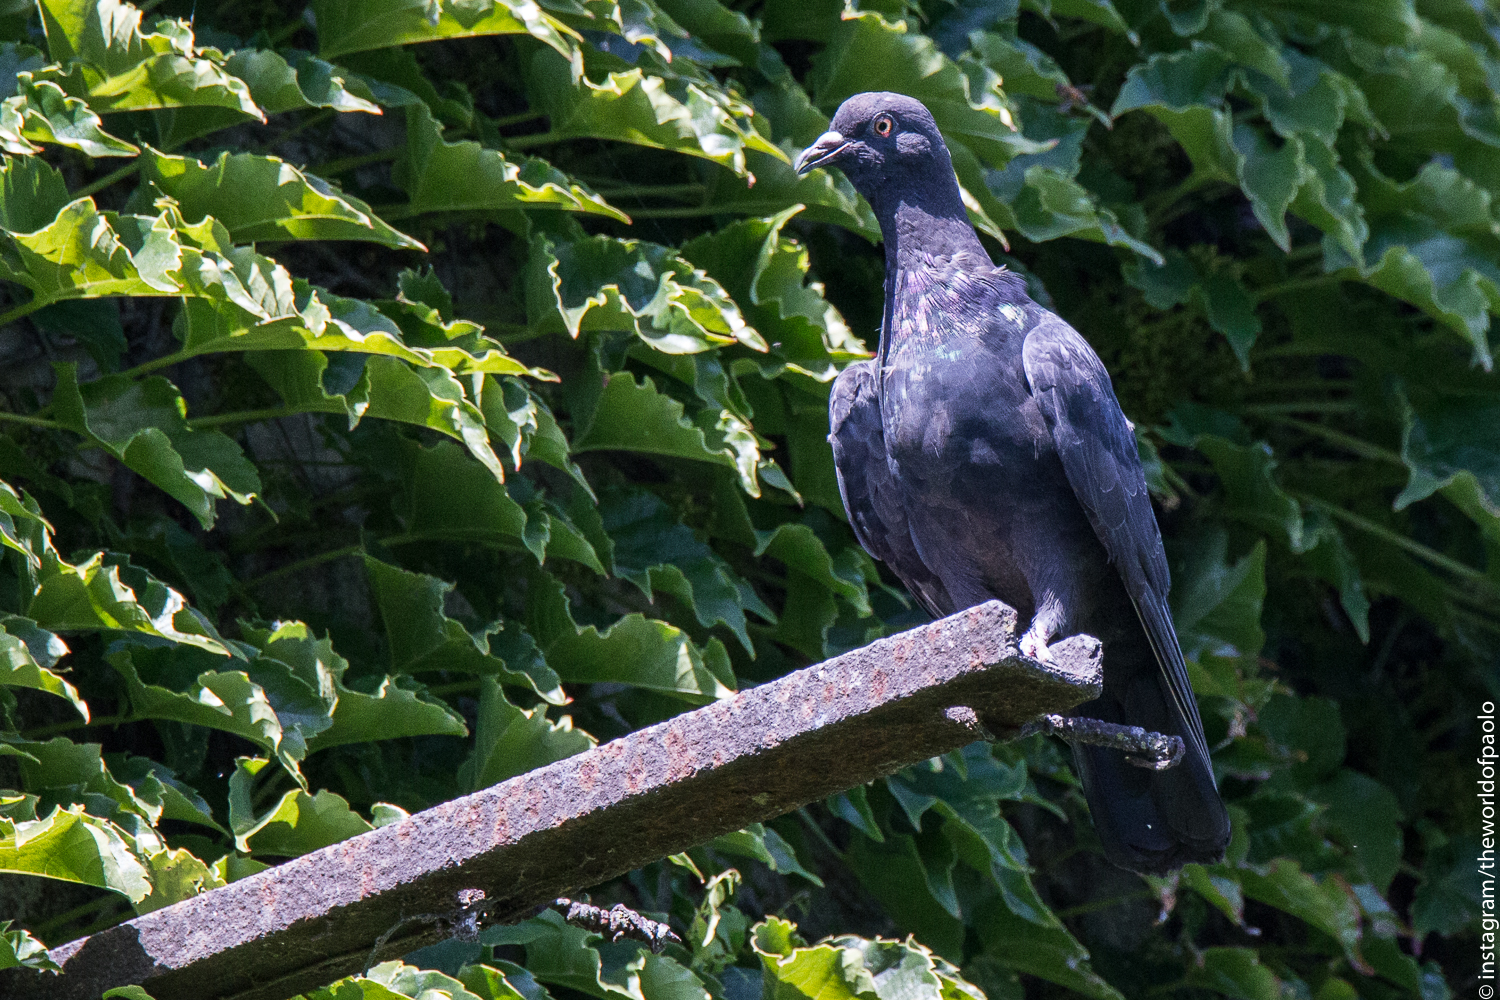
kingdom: Animalia
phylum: Chordata
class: Aves
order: Columbiformes
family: Columbidae
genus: Columba
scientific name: Columba livia
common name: Rock pigeon
